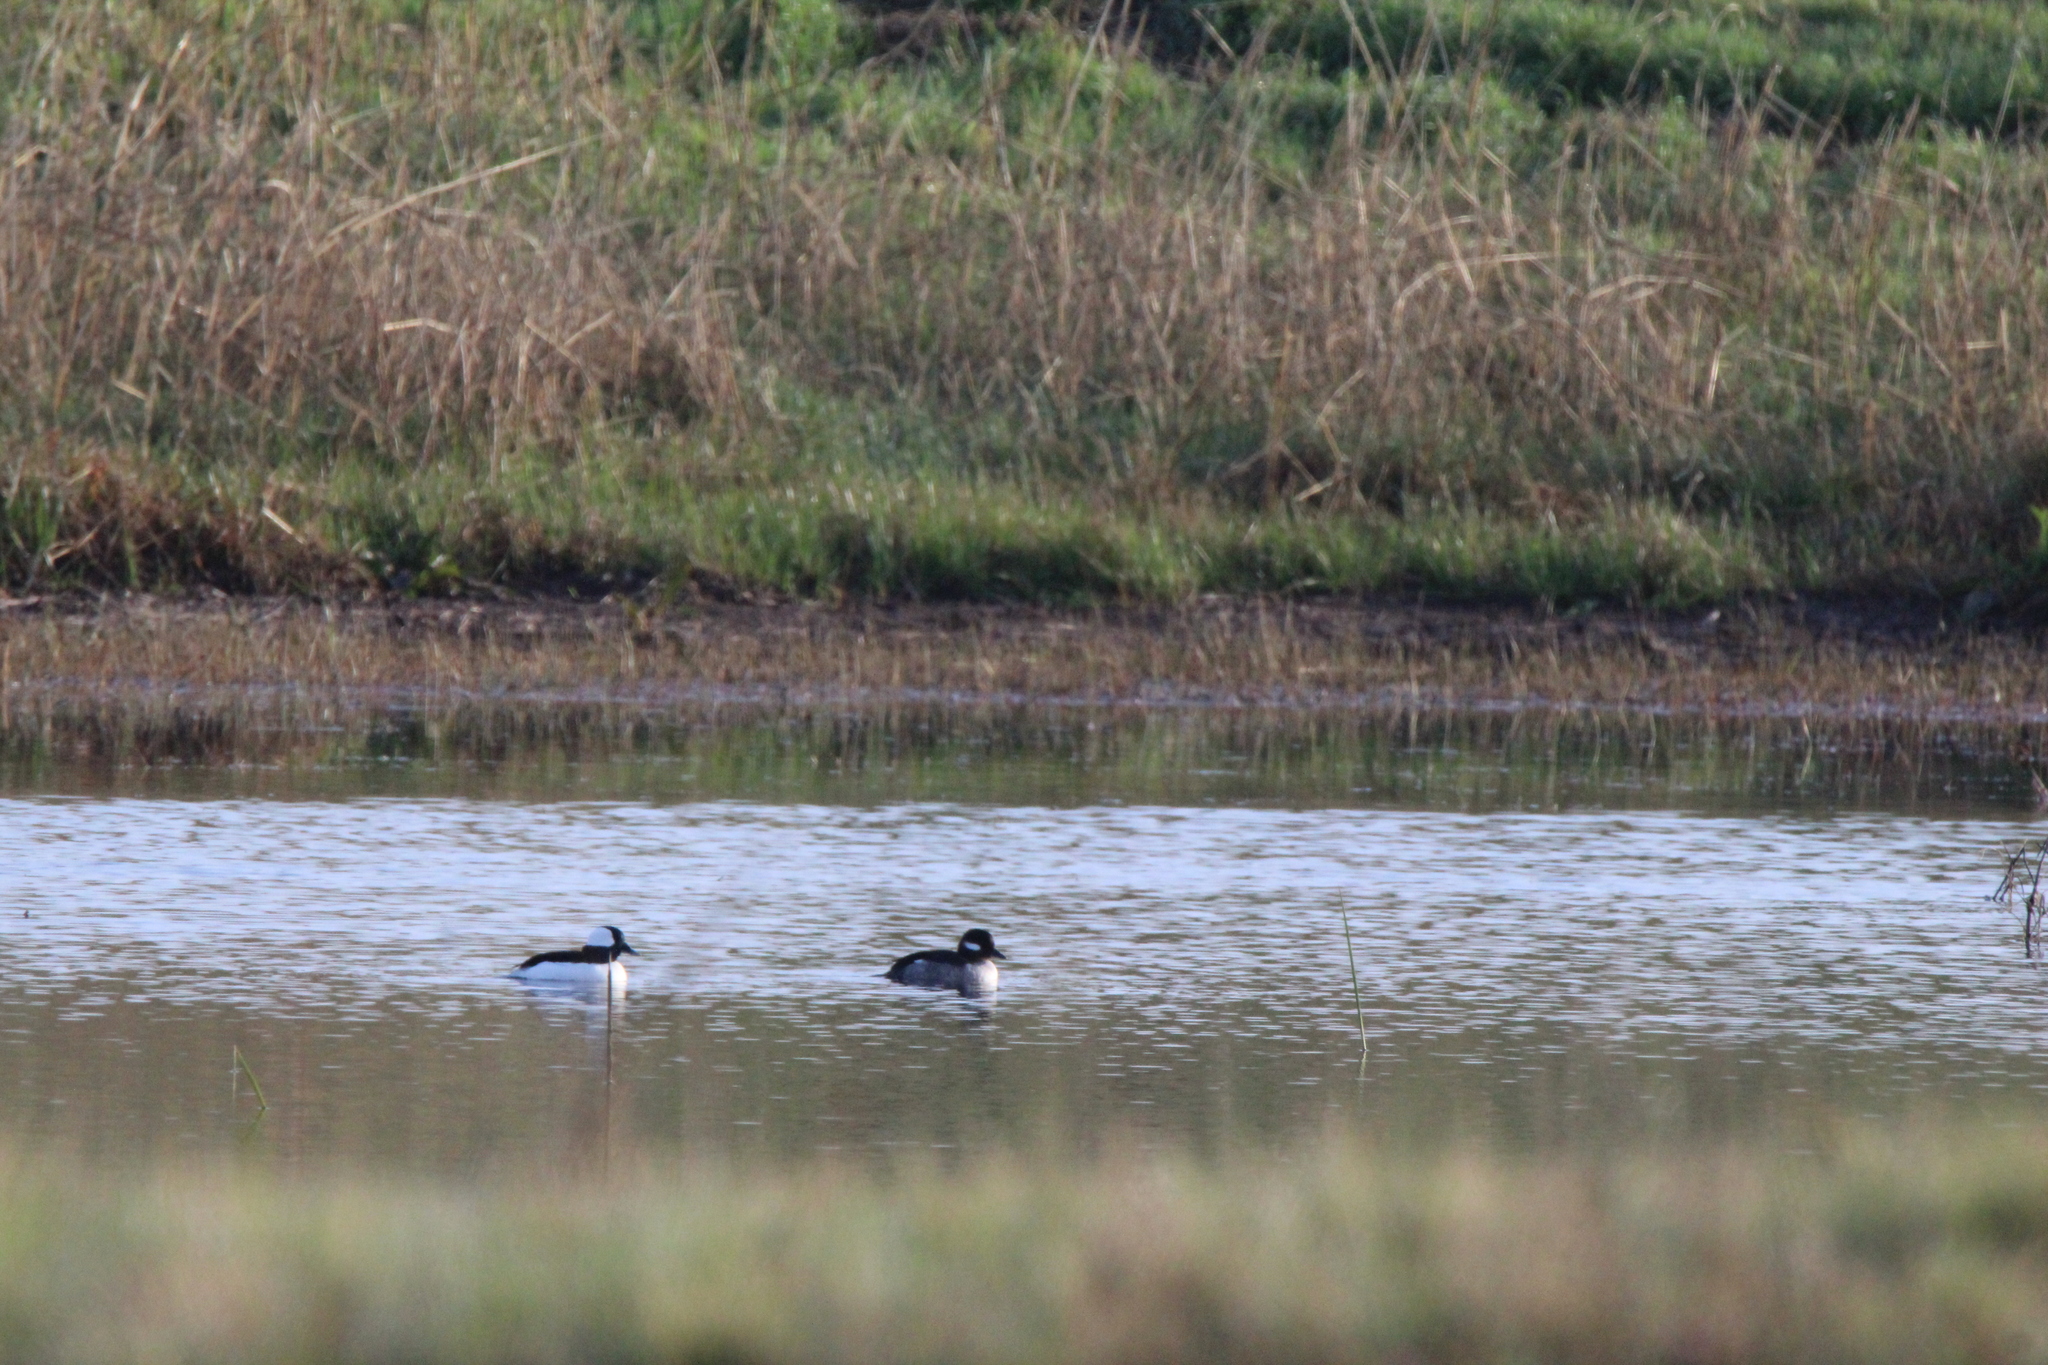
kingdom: Animalia
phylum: Chordata
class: Aves
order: Anseriformes
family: Anatidae
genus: Bucephala
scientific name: Bucephala albeola
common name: Bufflehead
